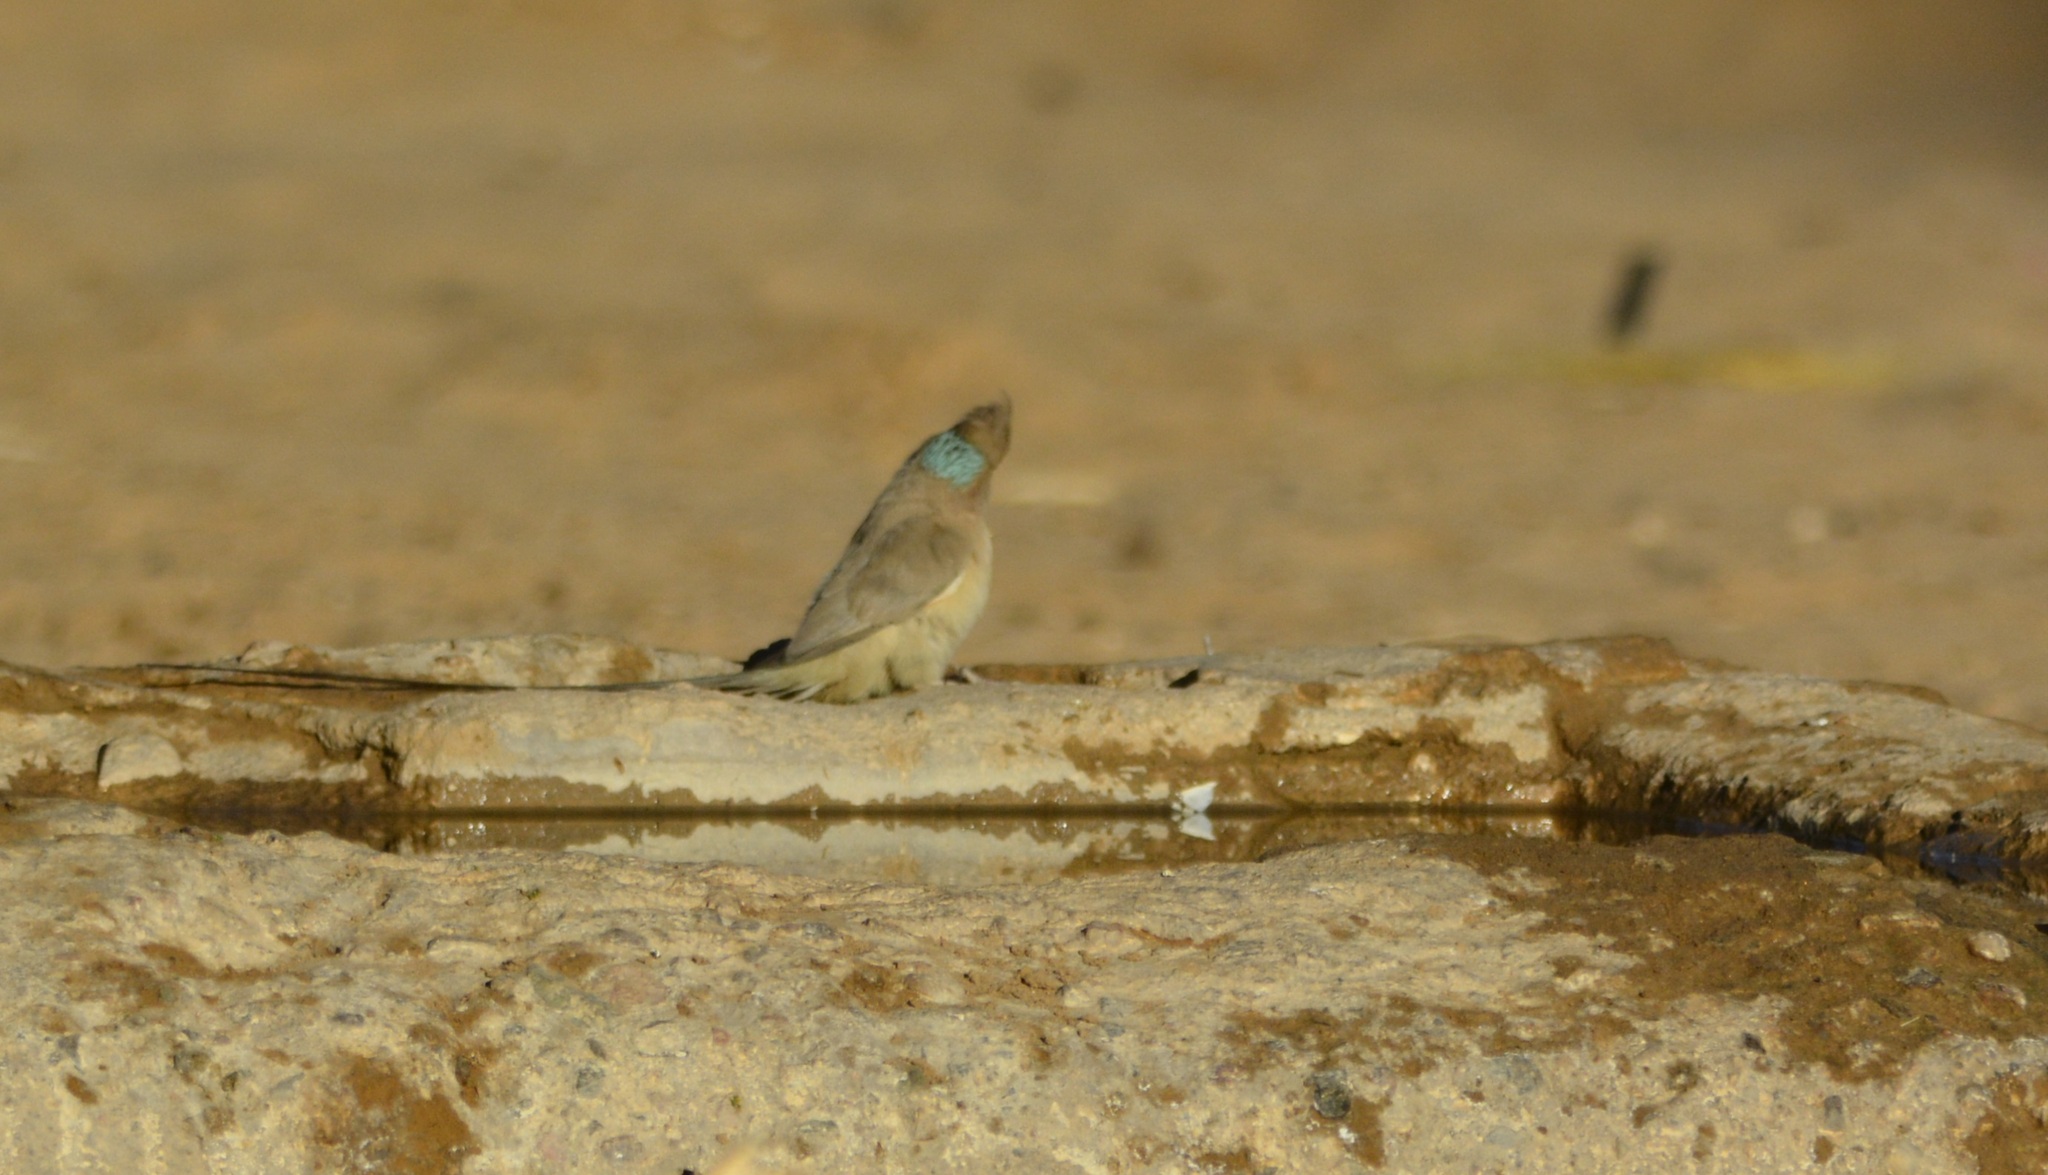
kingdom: Animalia
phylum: Chordata
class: Aves
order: Coliiformes
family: Coliidae
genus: Urocolius
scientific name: Urocolius macrourus
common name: Blue-naped mousebird
